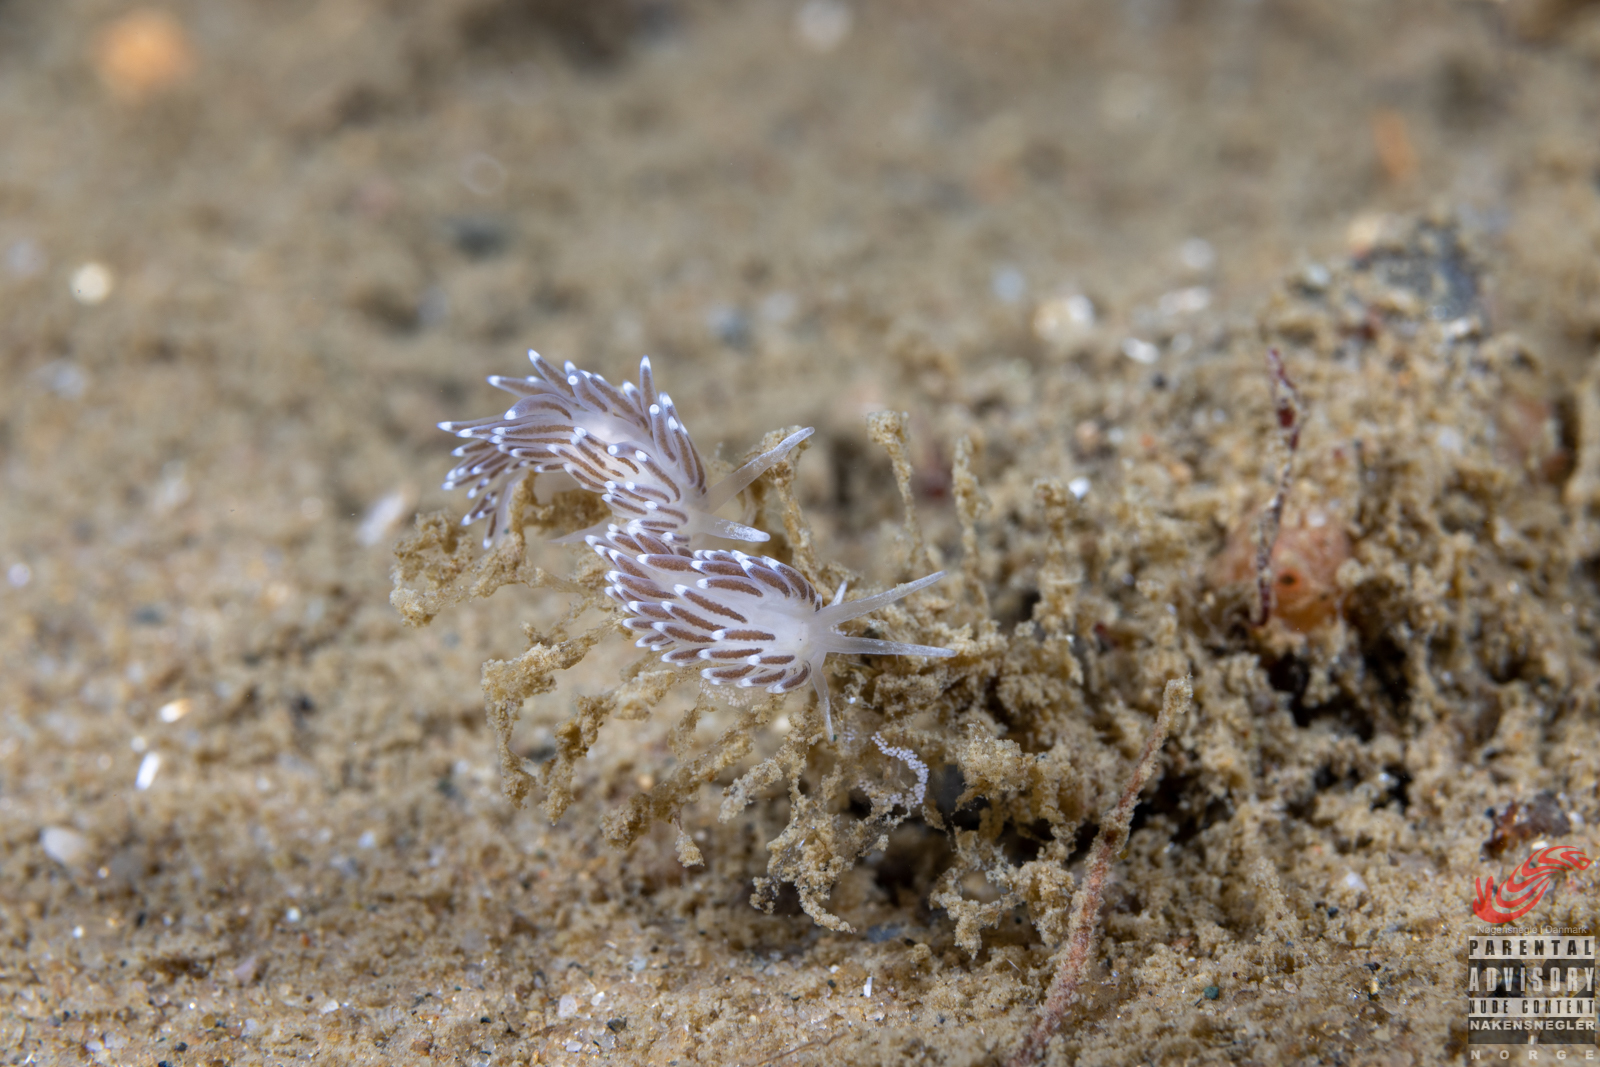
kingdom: Animalia
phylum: Mollusca
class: Gastropoda
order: Nudibranchia
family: Cuthonellidae
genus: Cuthonella
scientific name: Cuthonella concinna
